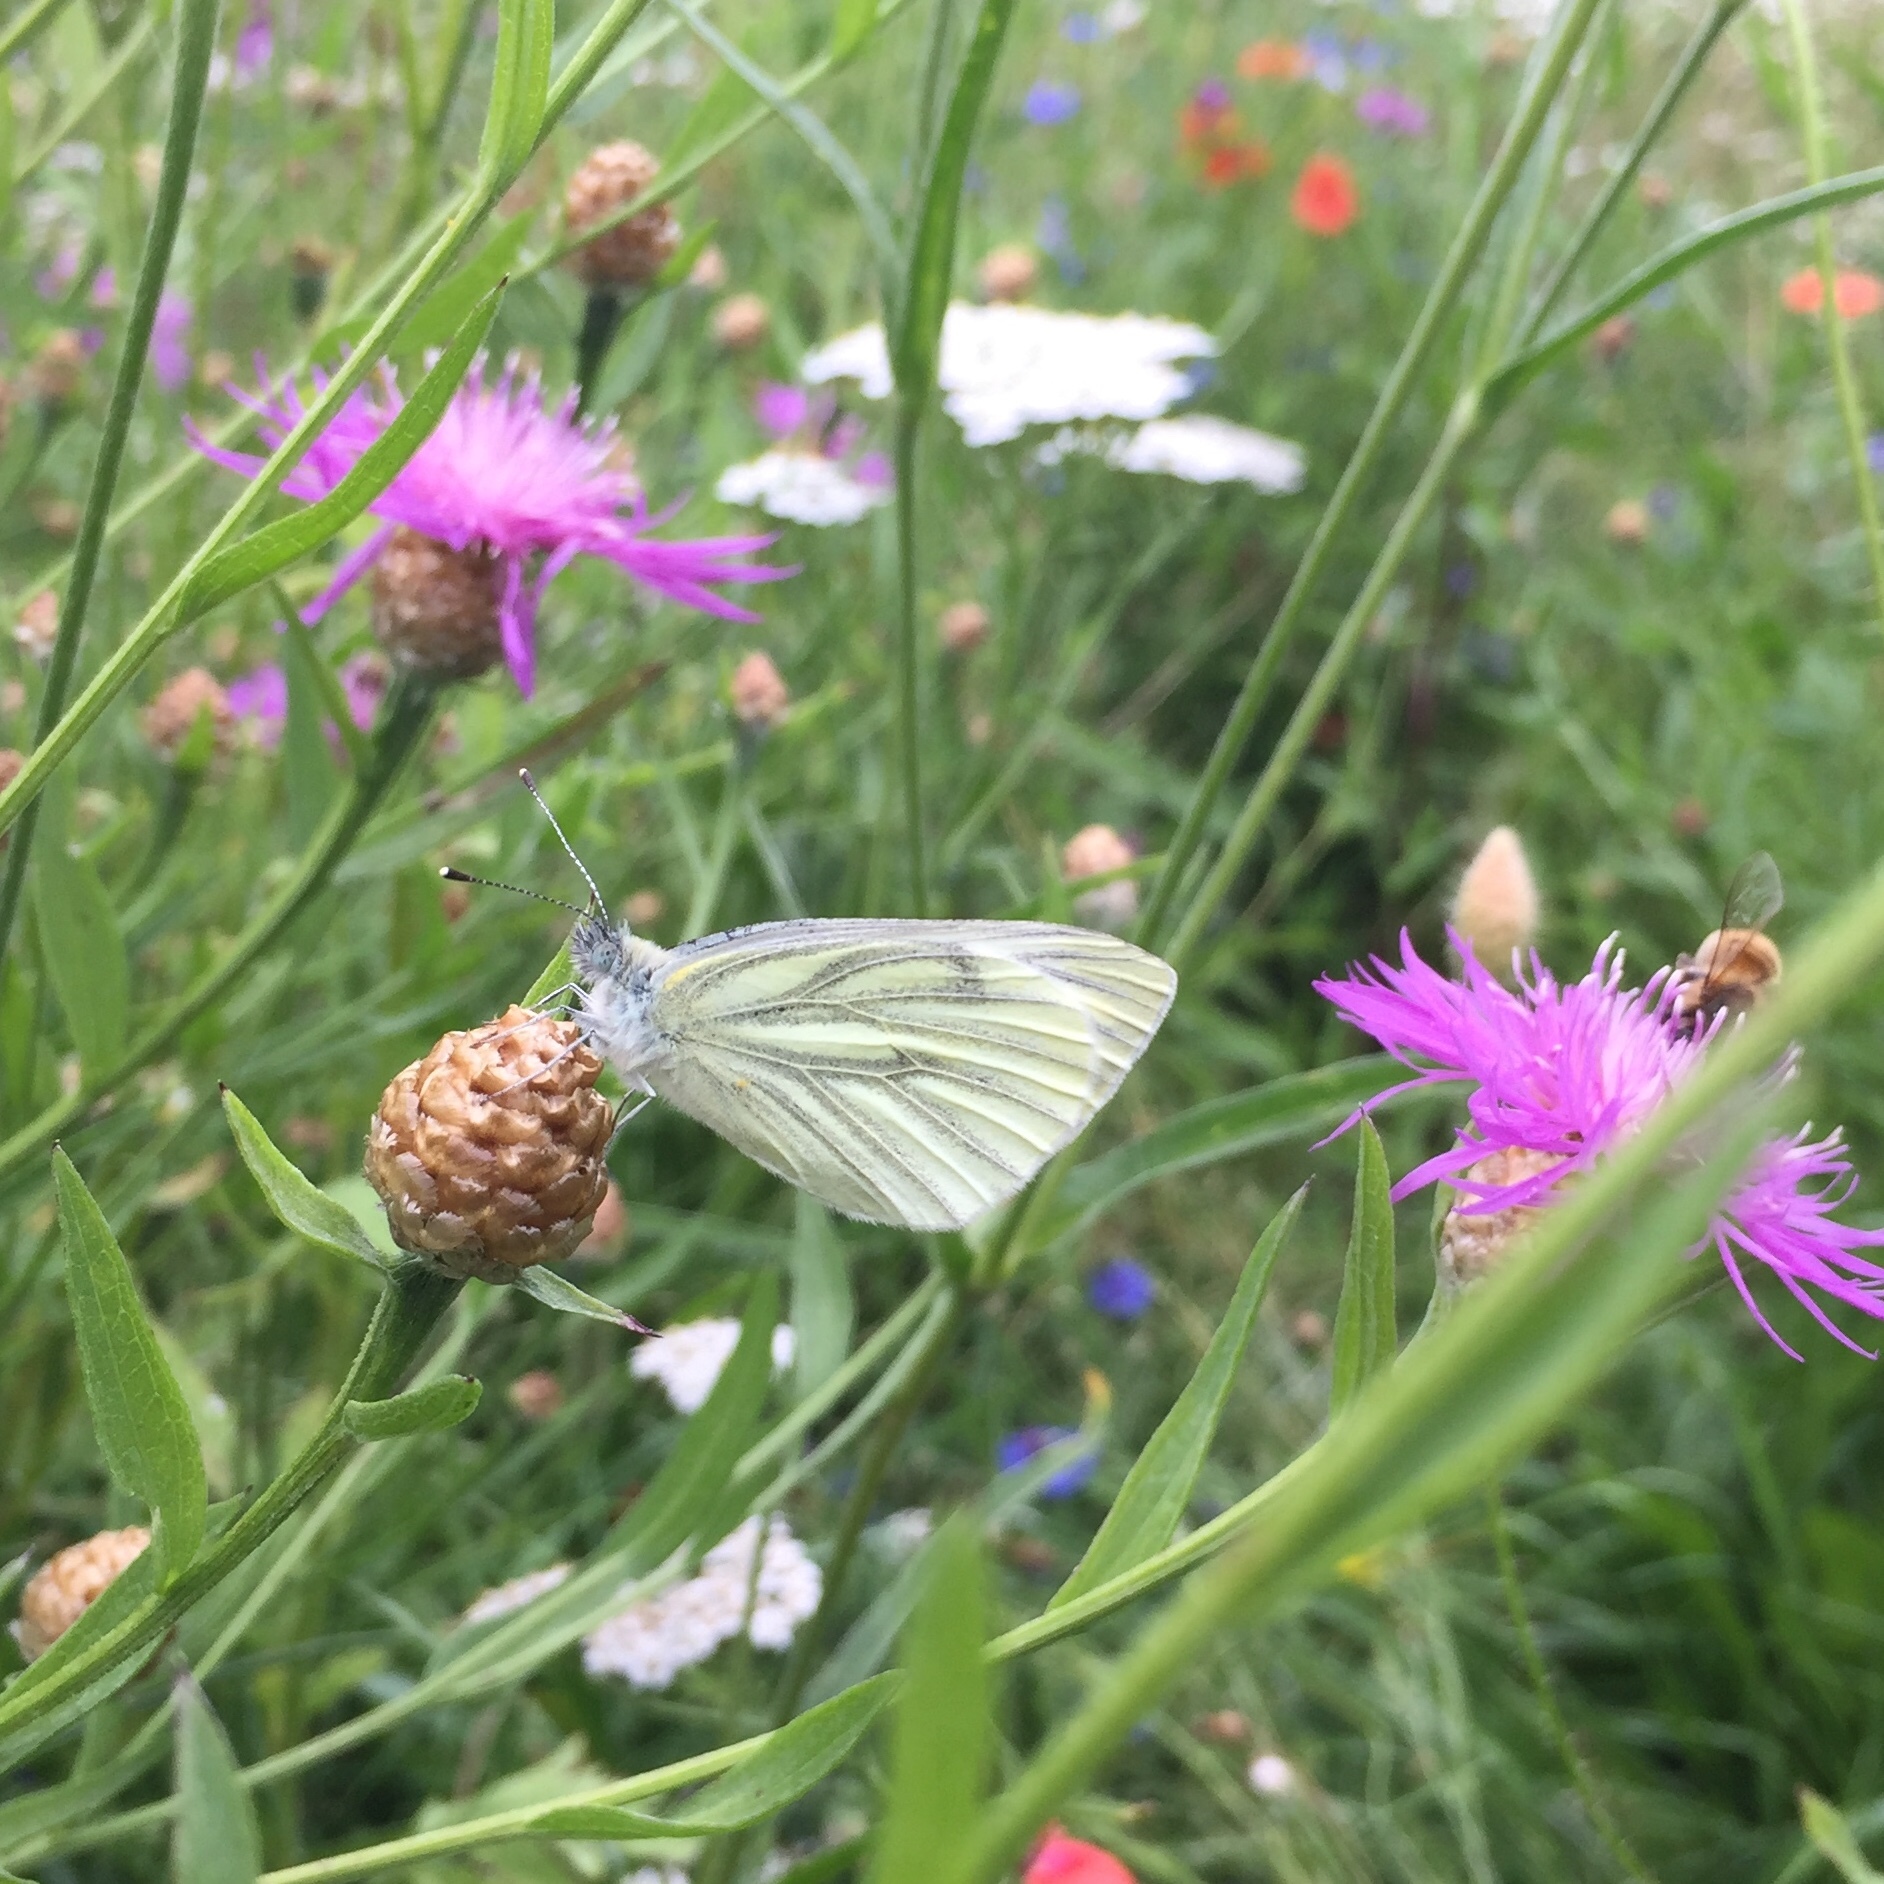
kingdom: Animalia
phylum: Arthropoda
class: Insecta
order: Lepidoptera
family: Pieridae
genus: Pieris
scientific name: Pieris napi
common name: Green-veined white
